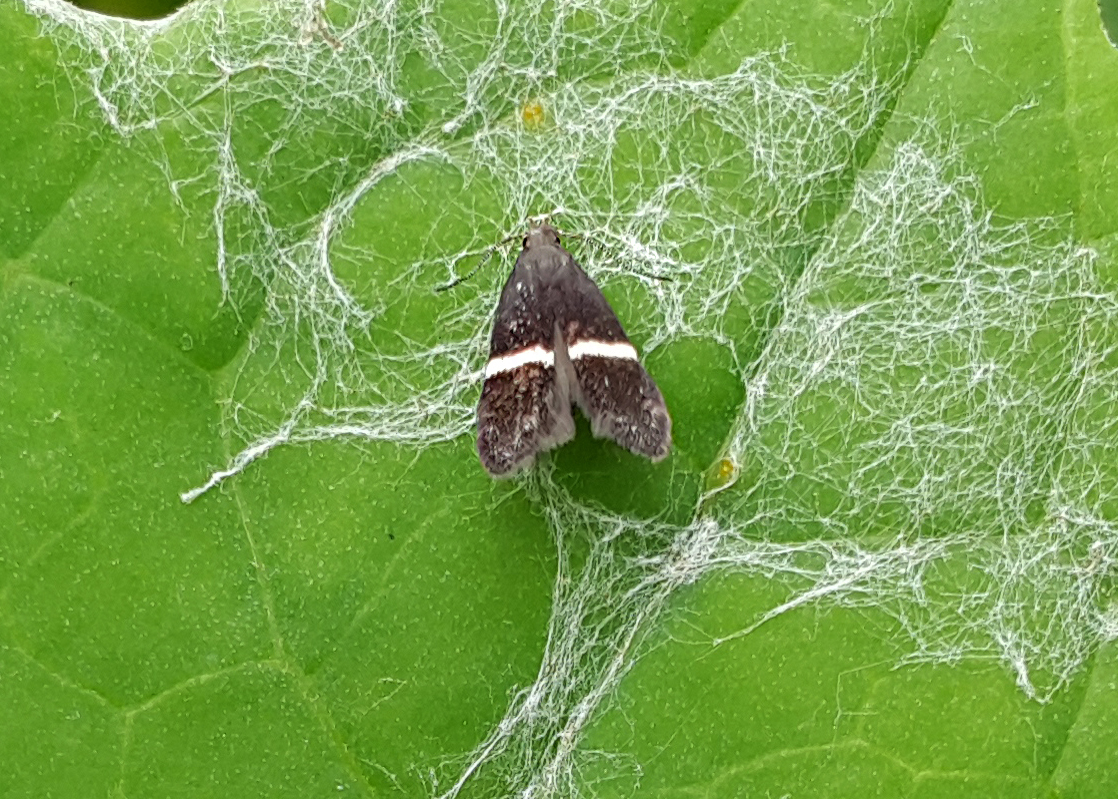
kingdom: Animalia
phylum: Arthropoda
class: Insecta
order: Lepidoptera
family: Gelechiidae
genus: Aproaerema
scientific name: Aproaerema
